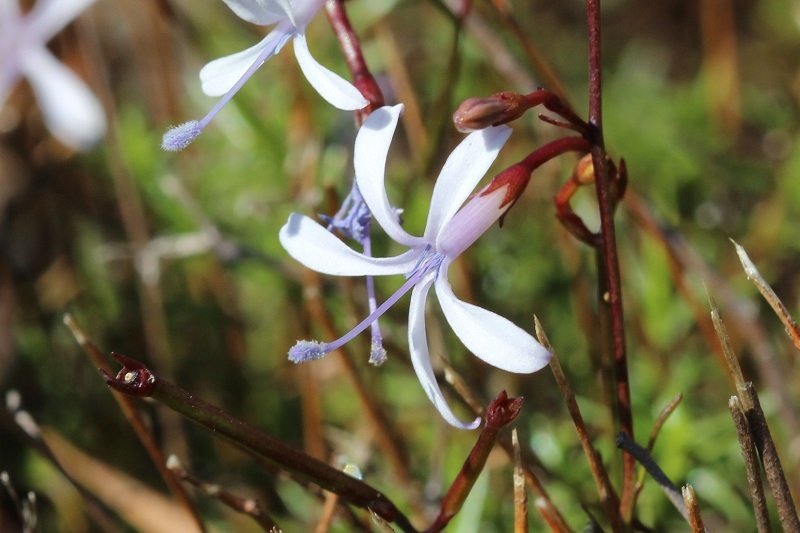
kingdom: Plantae
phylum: Tracheophyta
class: Magnoliopsida
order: Asterales
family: Campanulaceae
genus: Prismatocarpus
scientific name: Prismatocarpus diffusus
